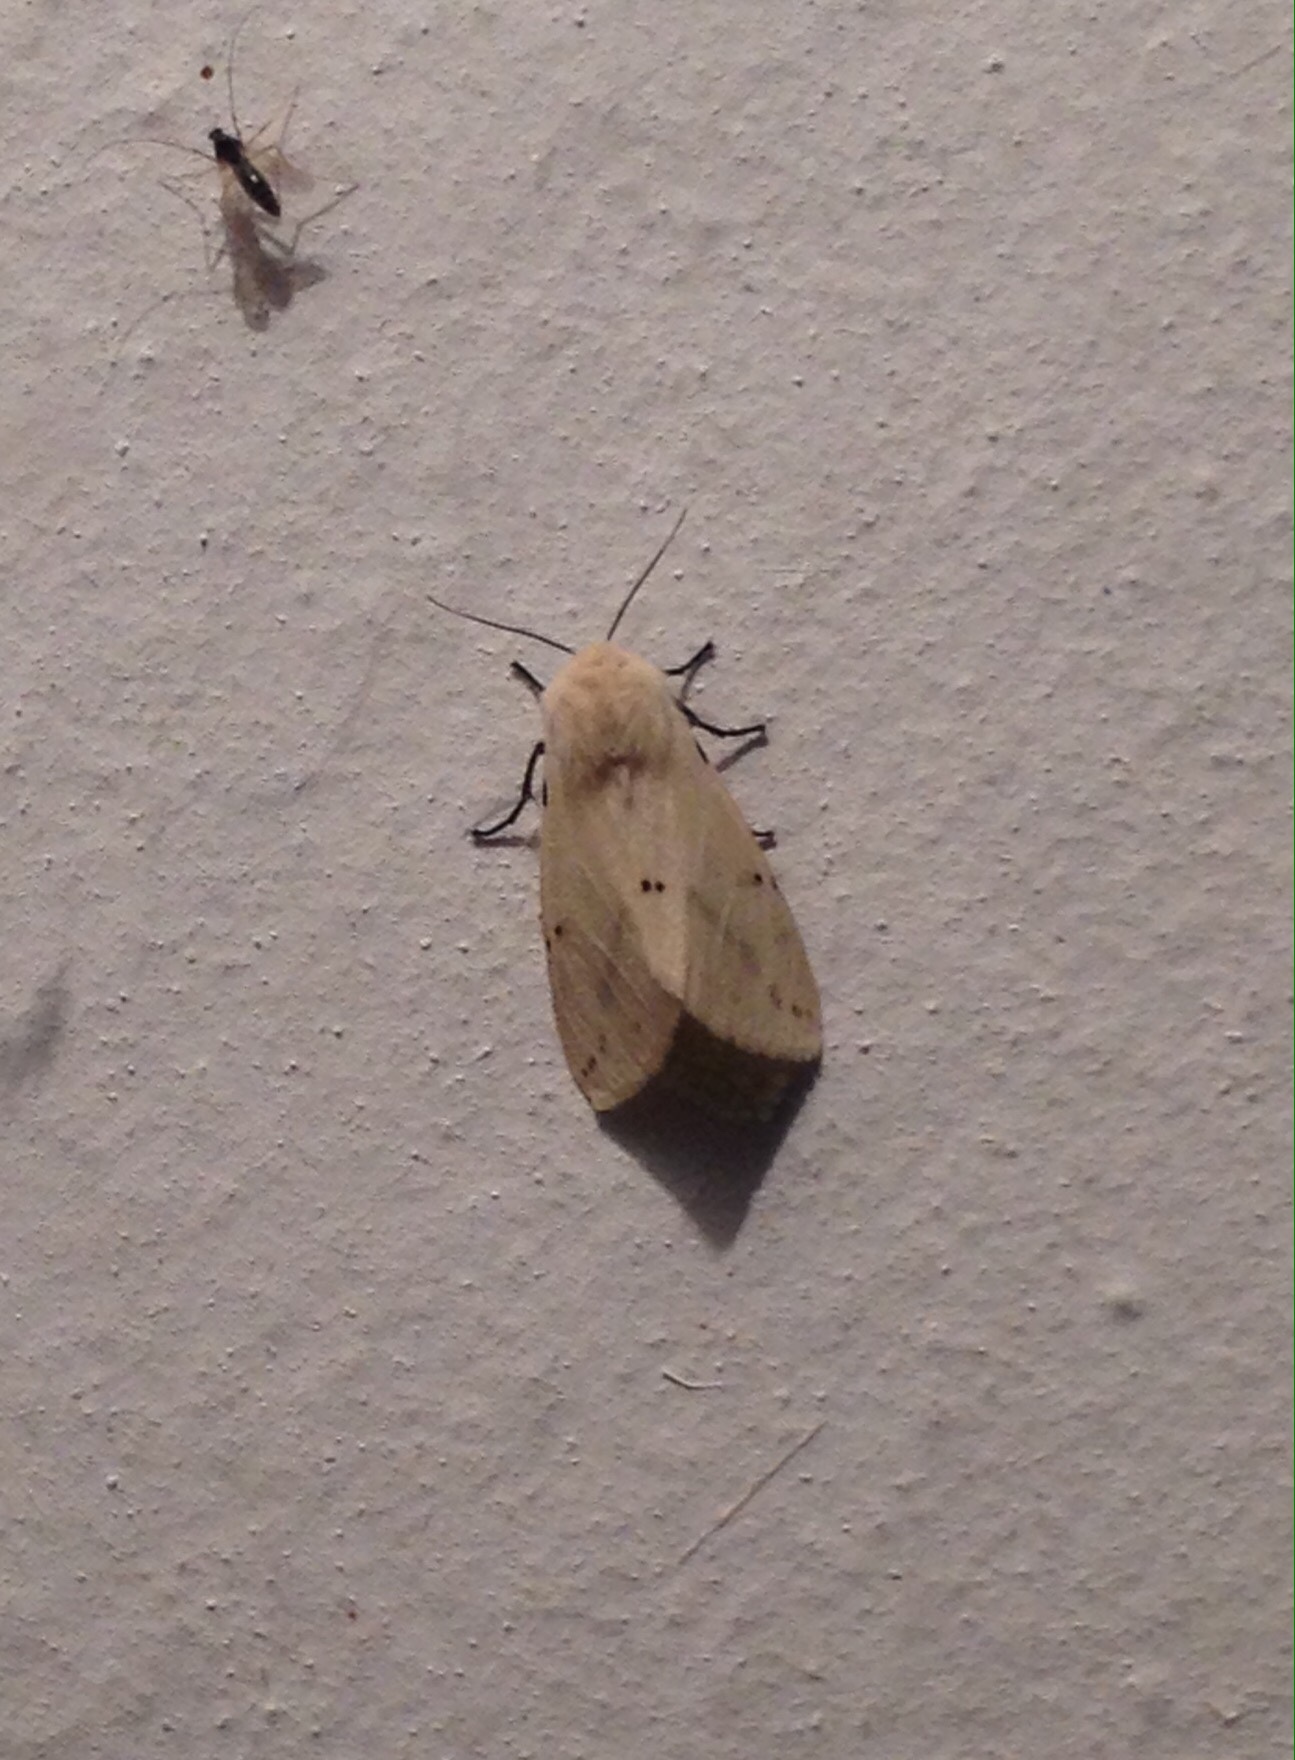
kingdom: Animalia
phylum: Arthropoda
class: Insecta
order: Lepidoptera
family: Erebidae
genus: Spilarctia
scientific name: Spilarctia lutea
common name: Buff ermine
